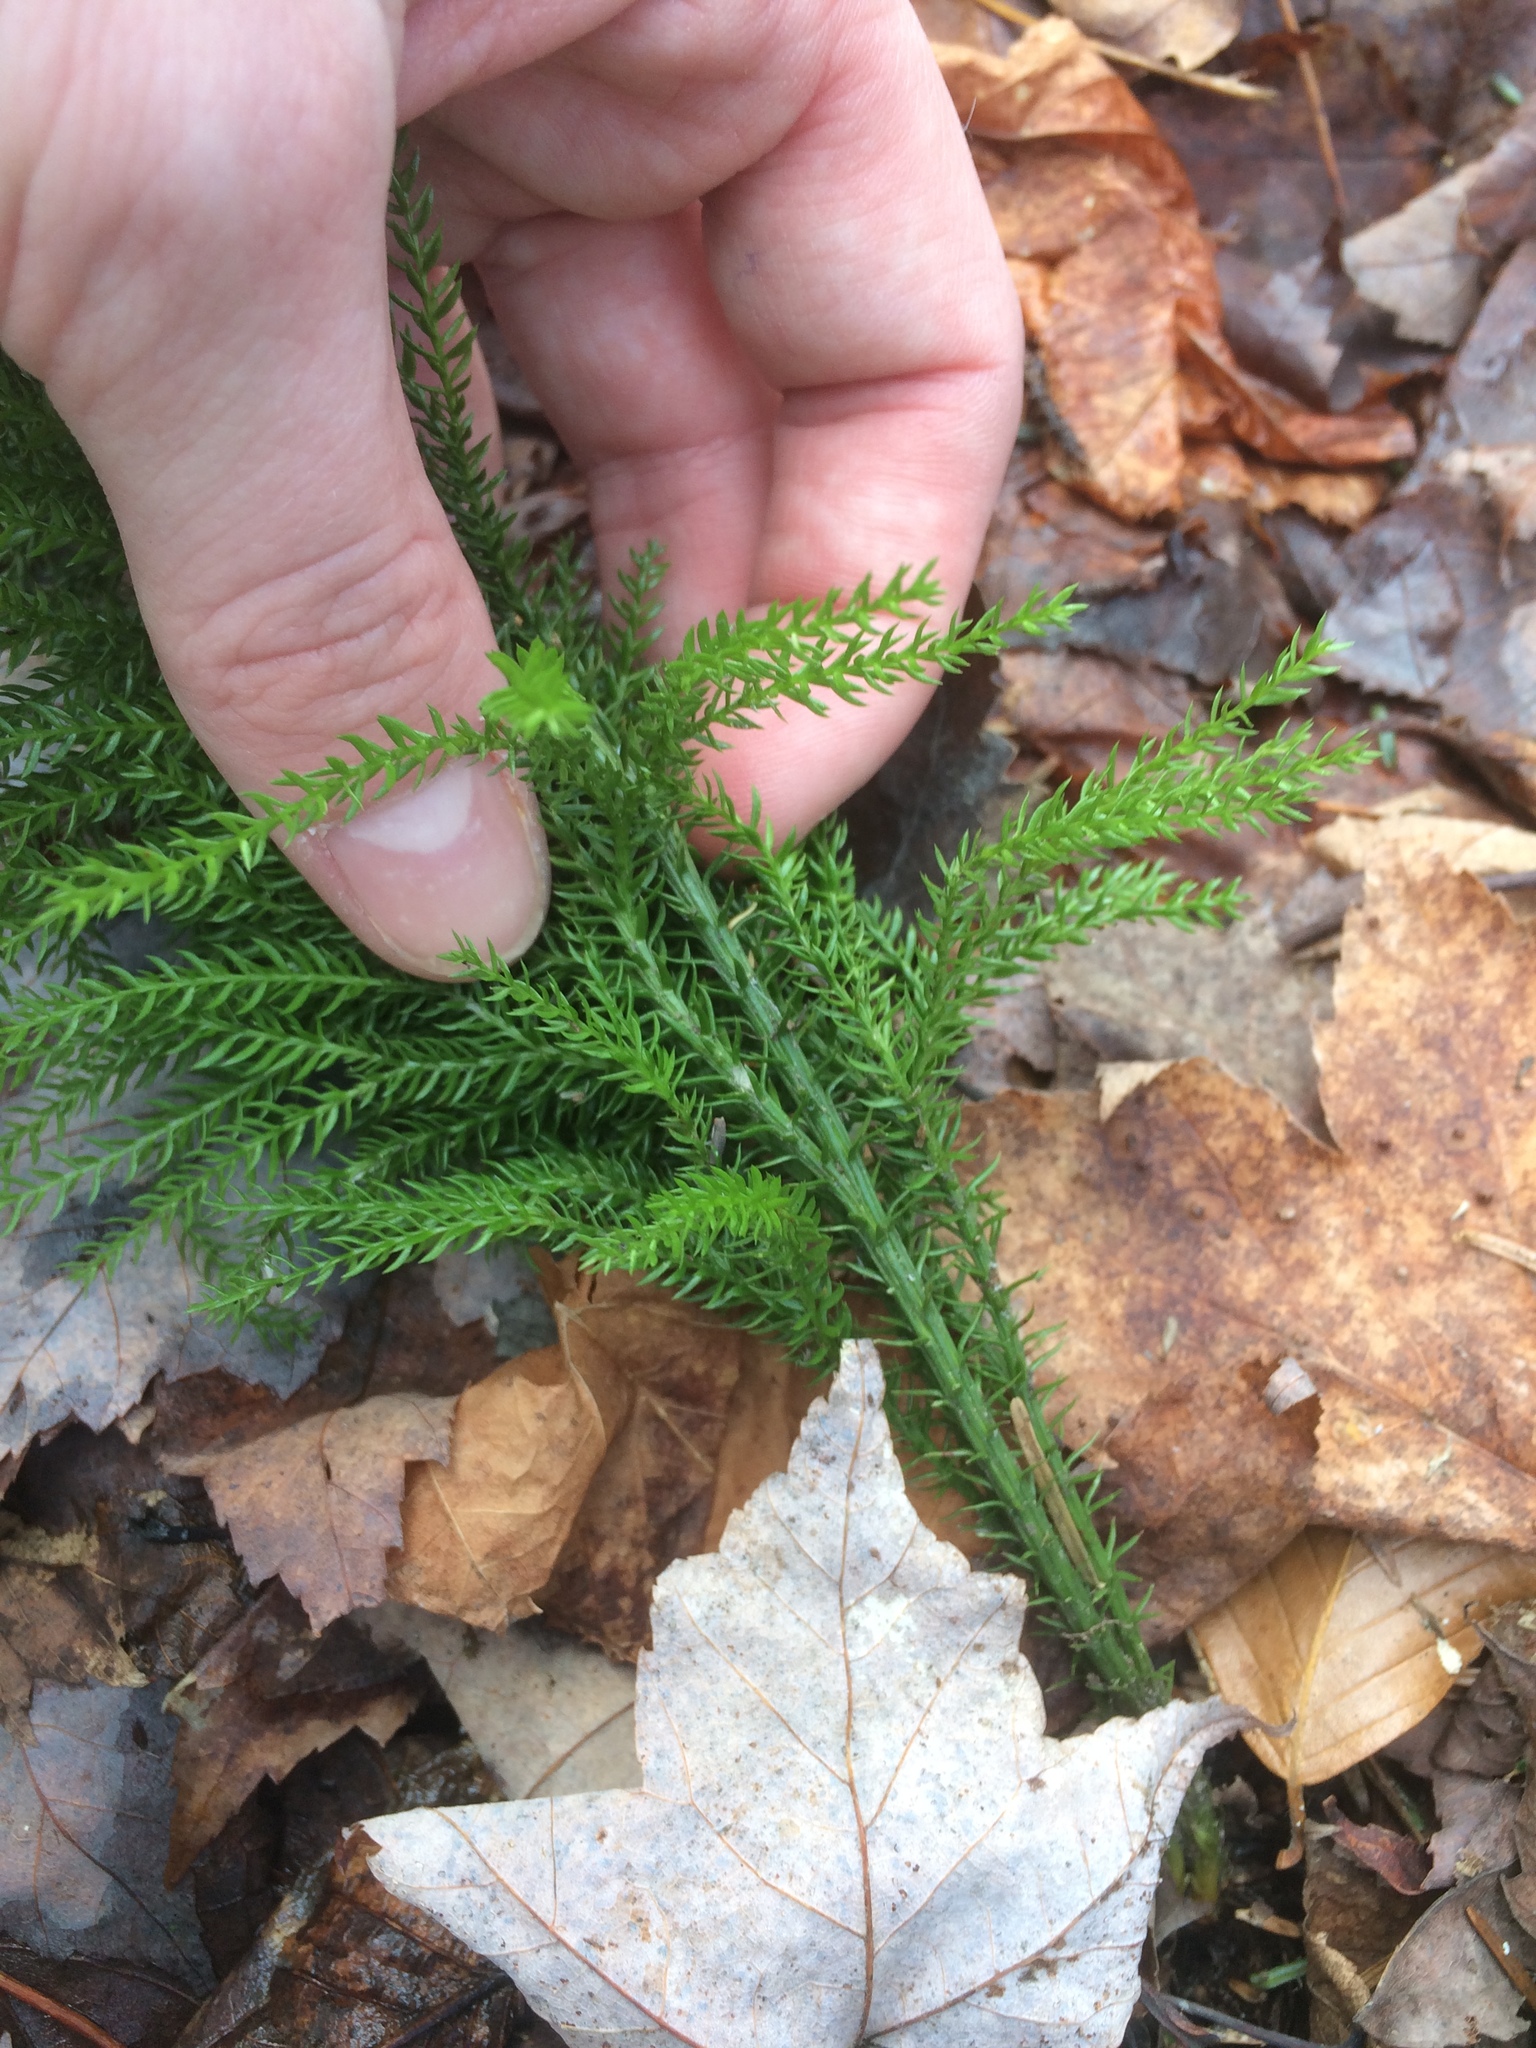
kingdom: Plantae
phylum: Tracheophyta
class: Lycopodiopsida
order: Lycopodiales
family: Lycopodiaceae
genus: Dendrolycopodium
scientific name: Dendrolycopodium dendroideum
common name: Northern tree-clubmoss
